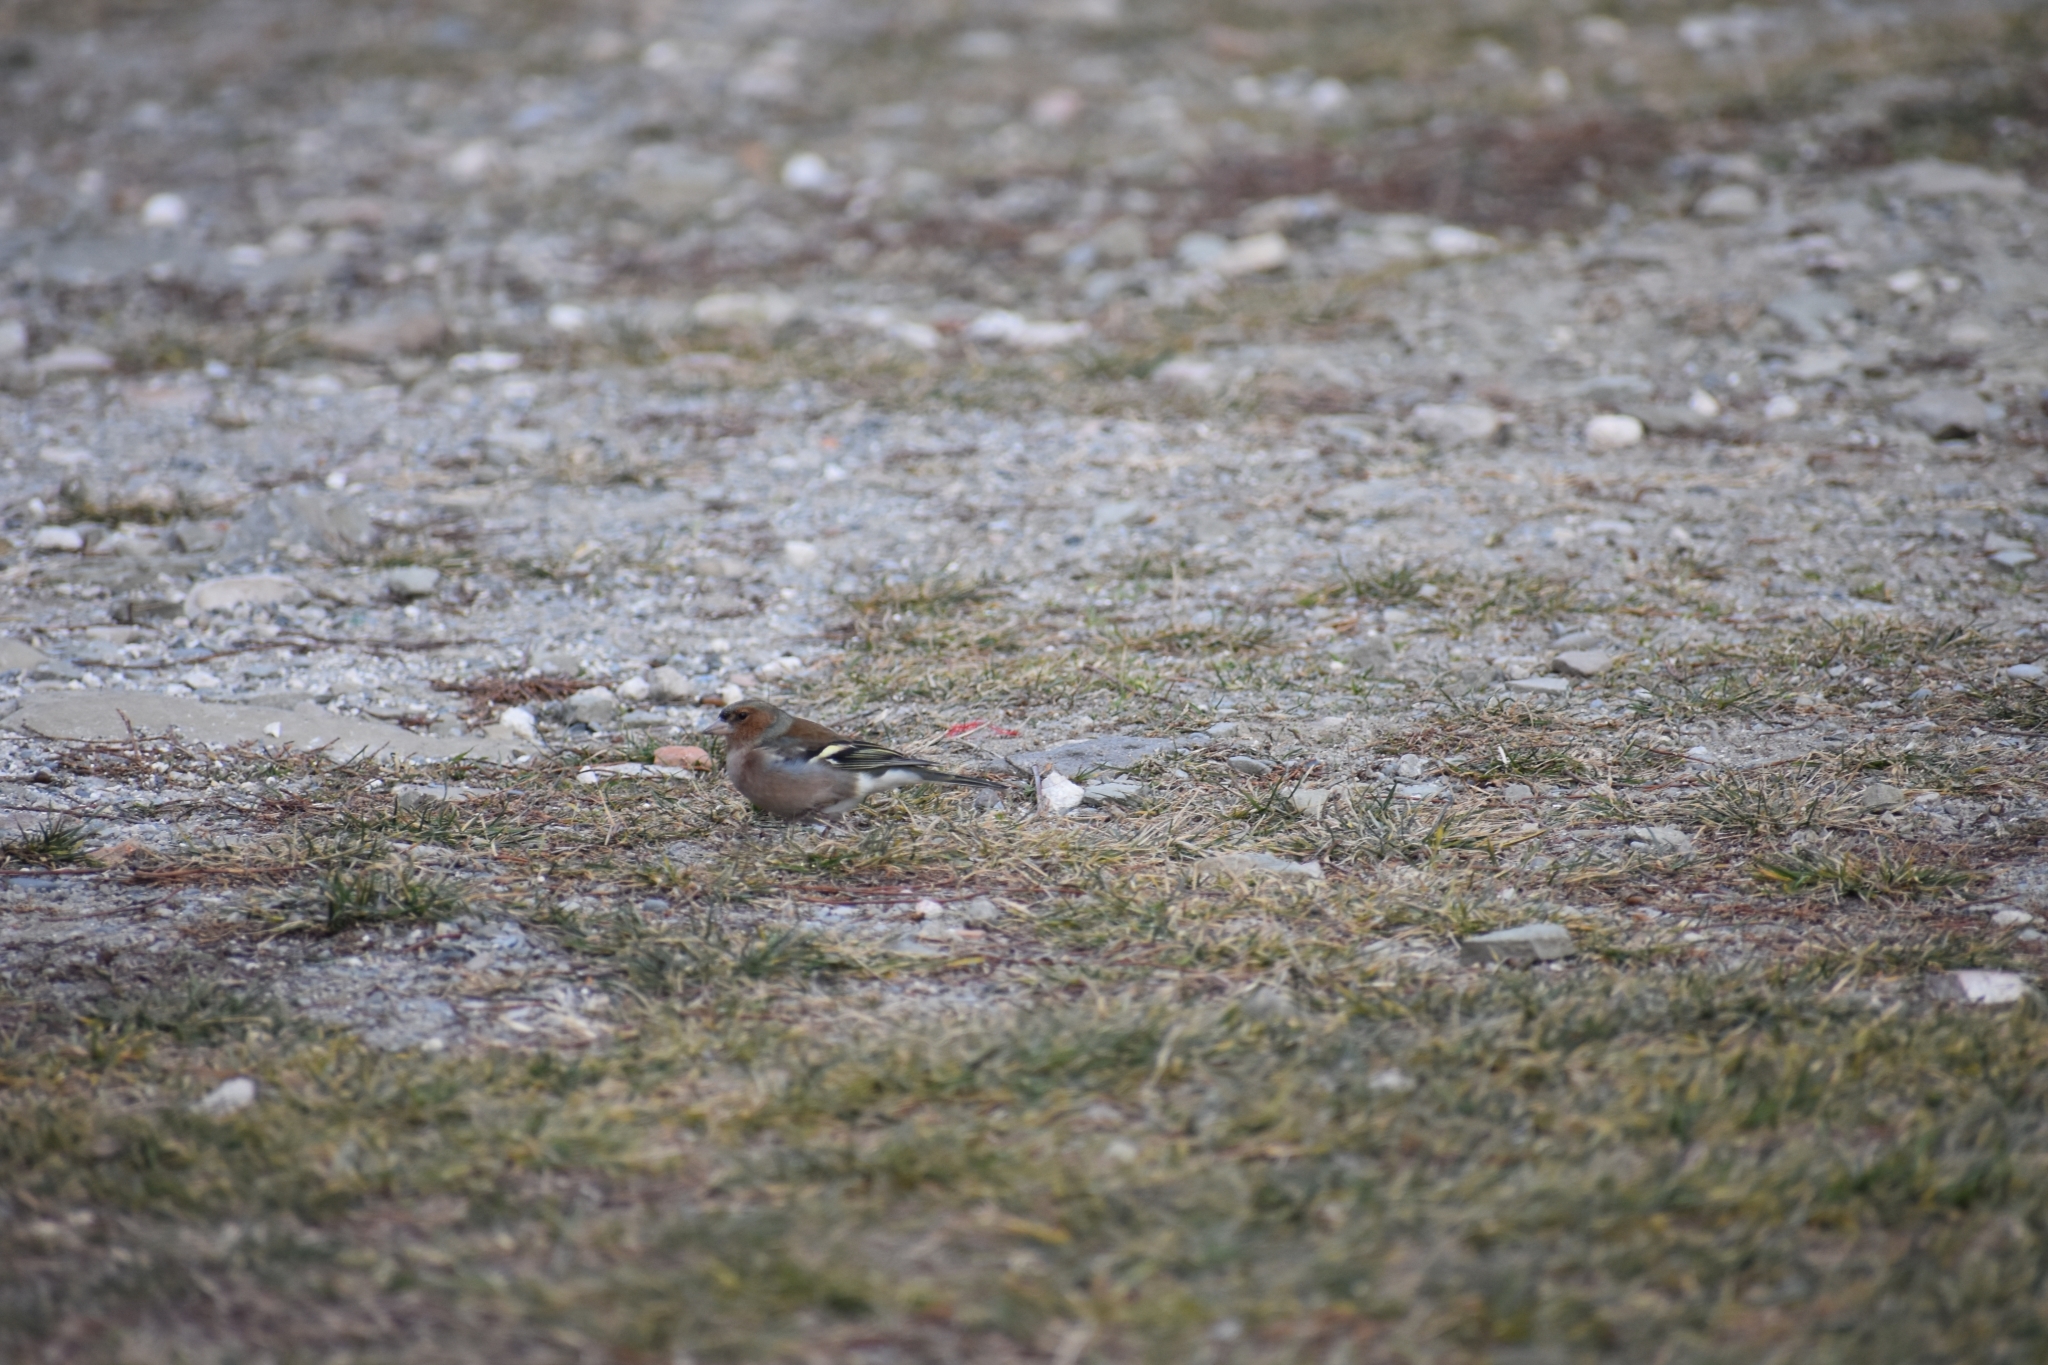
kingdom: Animalia
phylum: Chordata
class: Aves
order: Passeriformes
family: Fringillidae
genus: Fringilla
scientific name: Fringilla coelebs
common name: Common chaffinch
